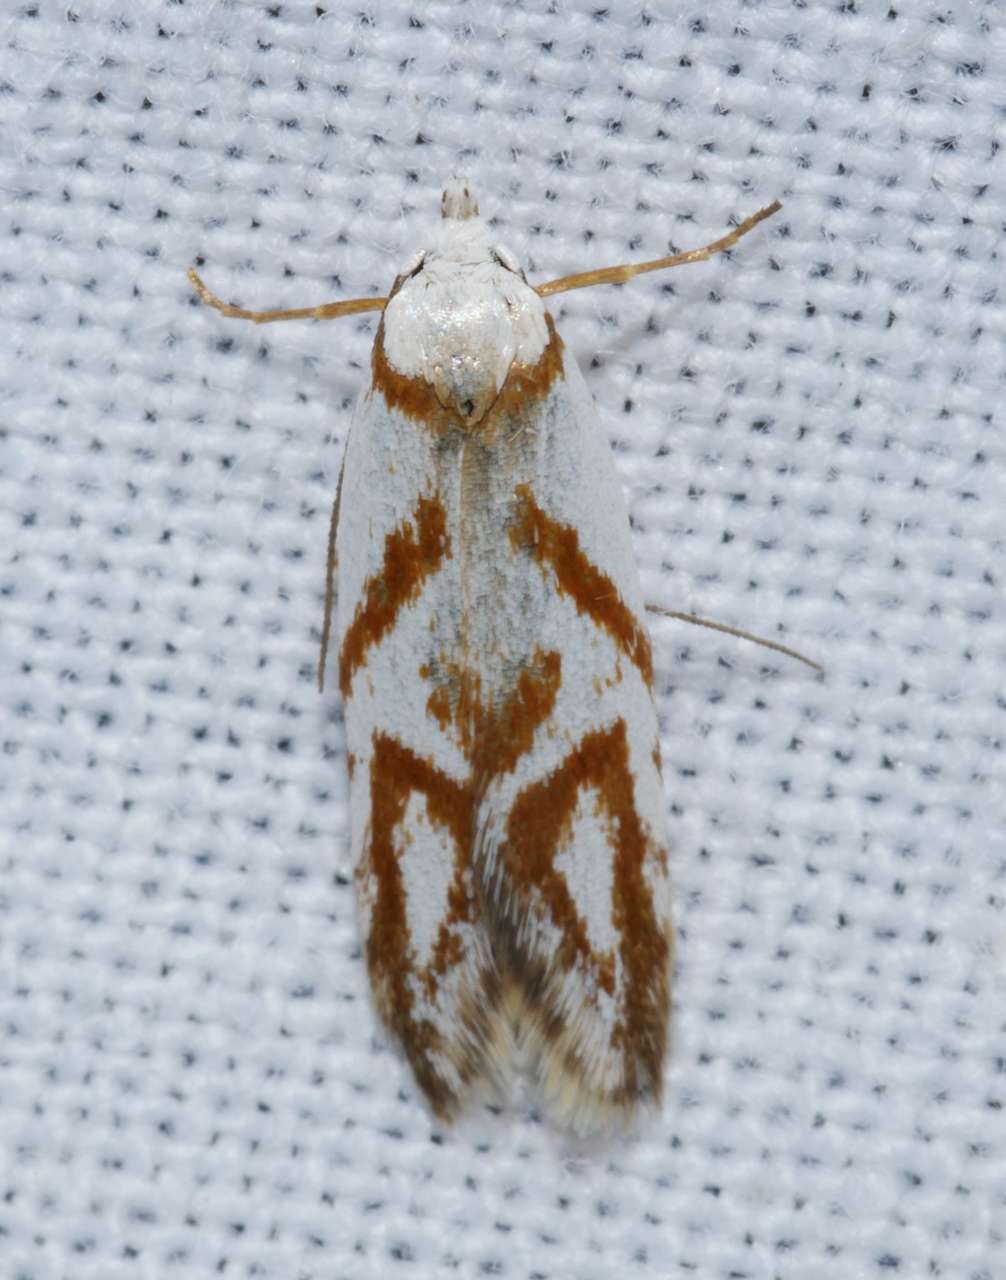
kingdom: Animalia
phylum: Arthropoda
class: Insecta
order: Lepidoptera
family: Oecophoridae
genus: Oxythecta
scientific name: Oxythecta acceptella
